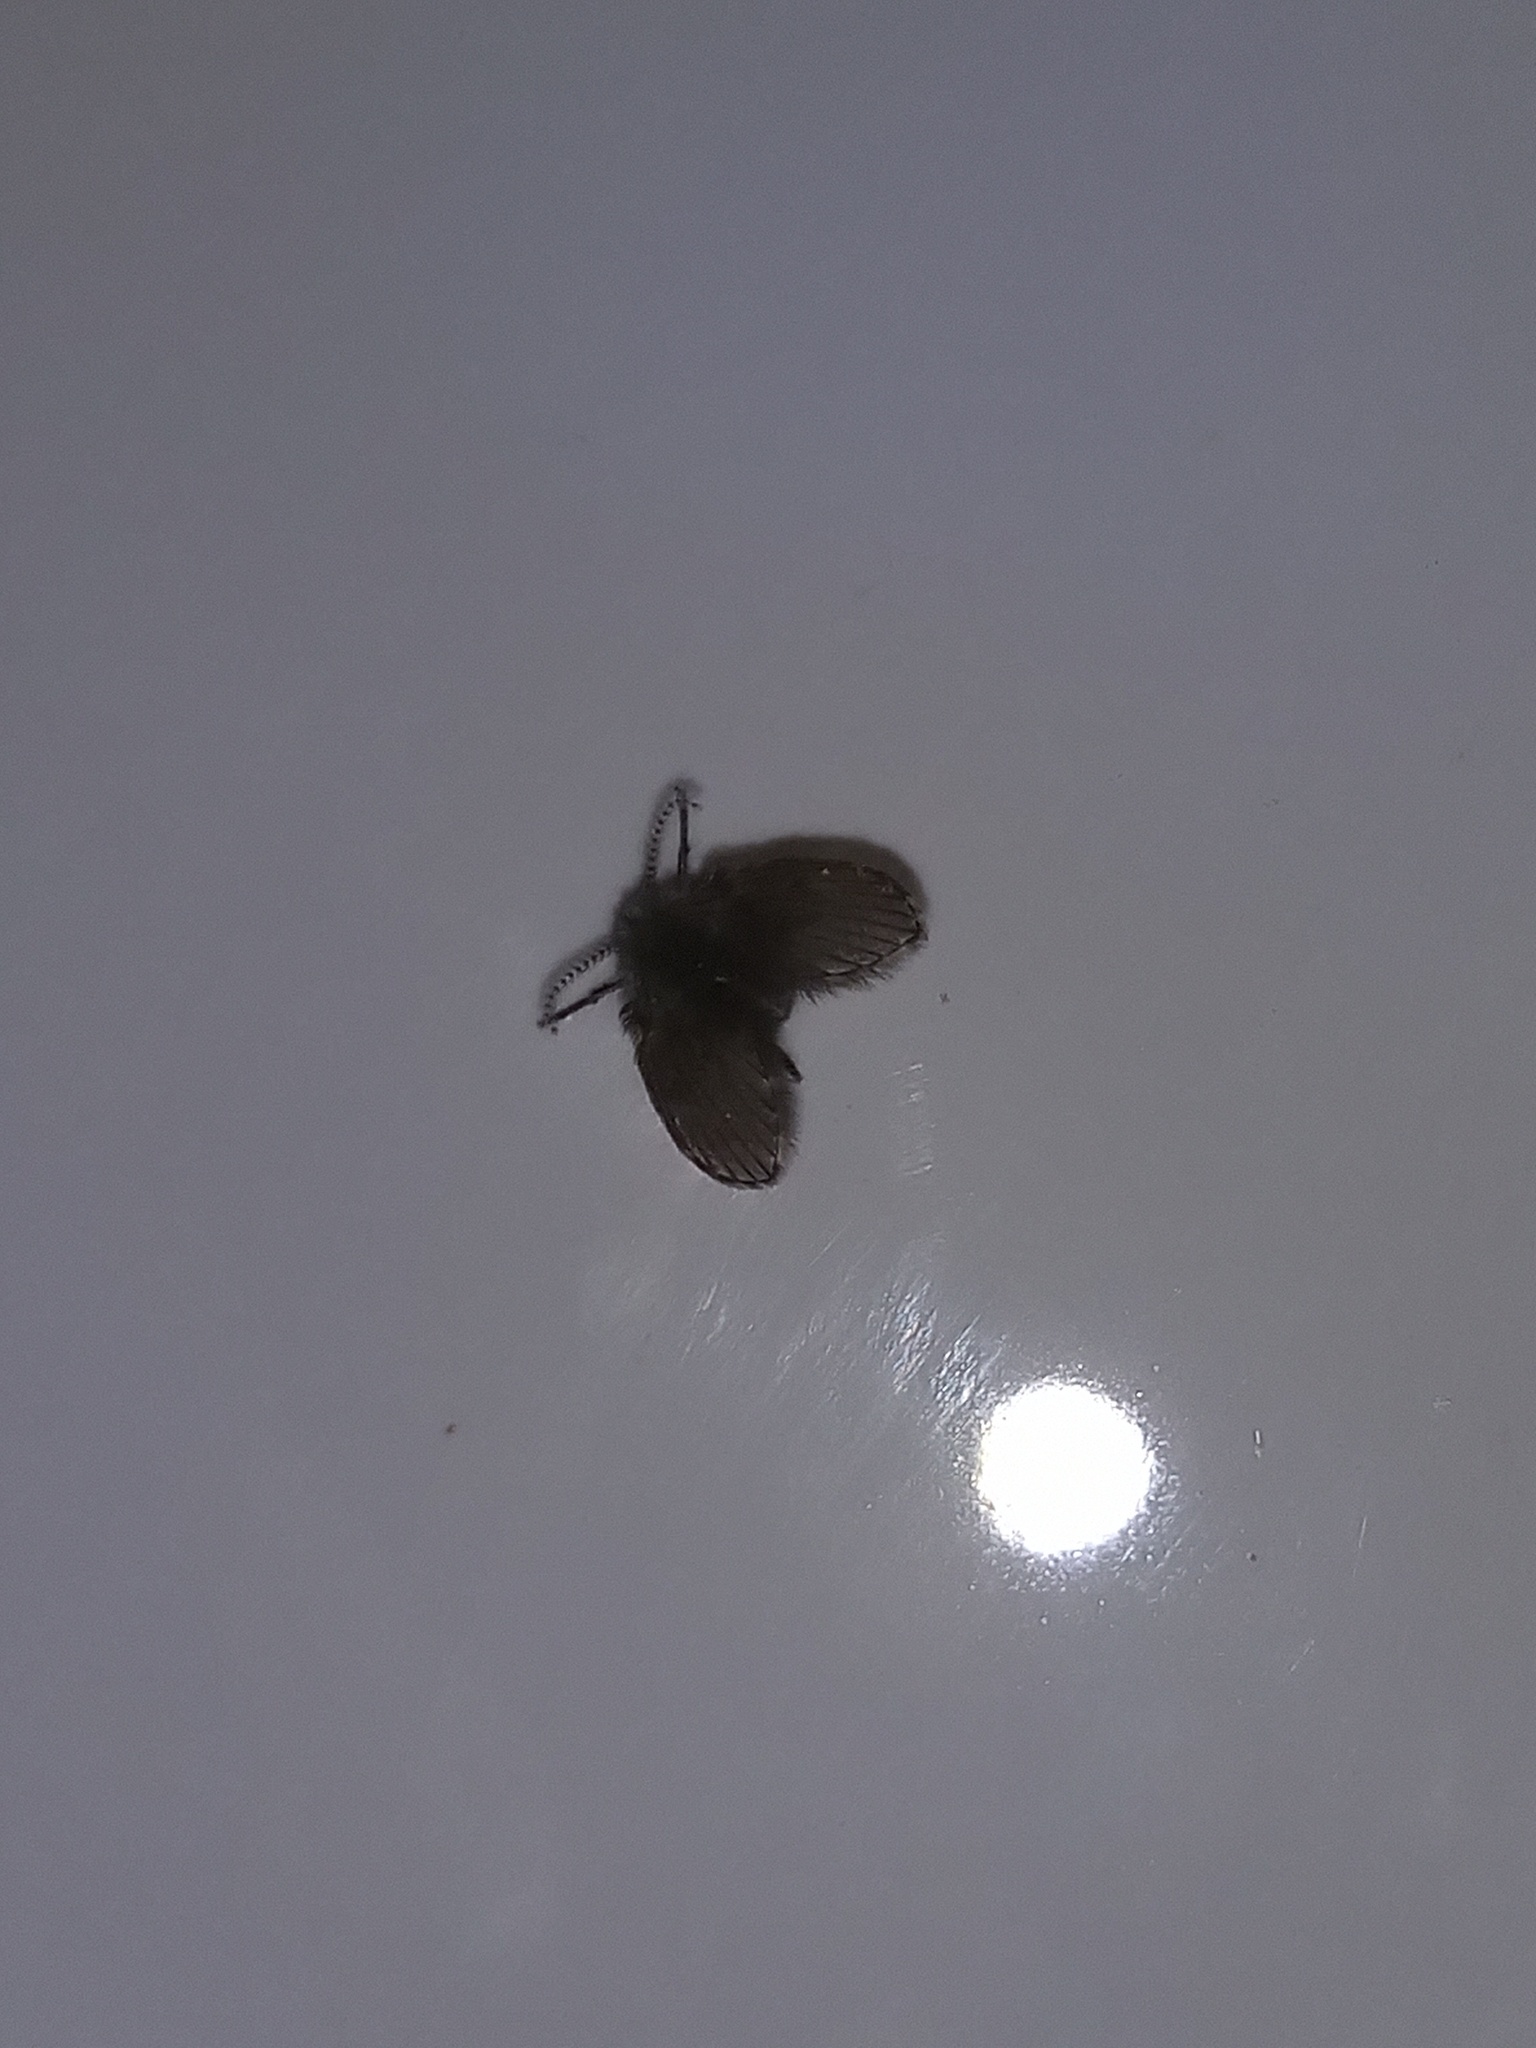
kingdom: Animalia
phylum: Arthropoda
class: Insecta
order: Diptera
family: Psychodidae
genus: Clogmia
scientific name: Clogmia albipunctatus
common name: White-spotted moth fly
